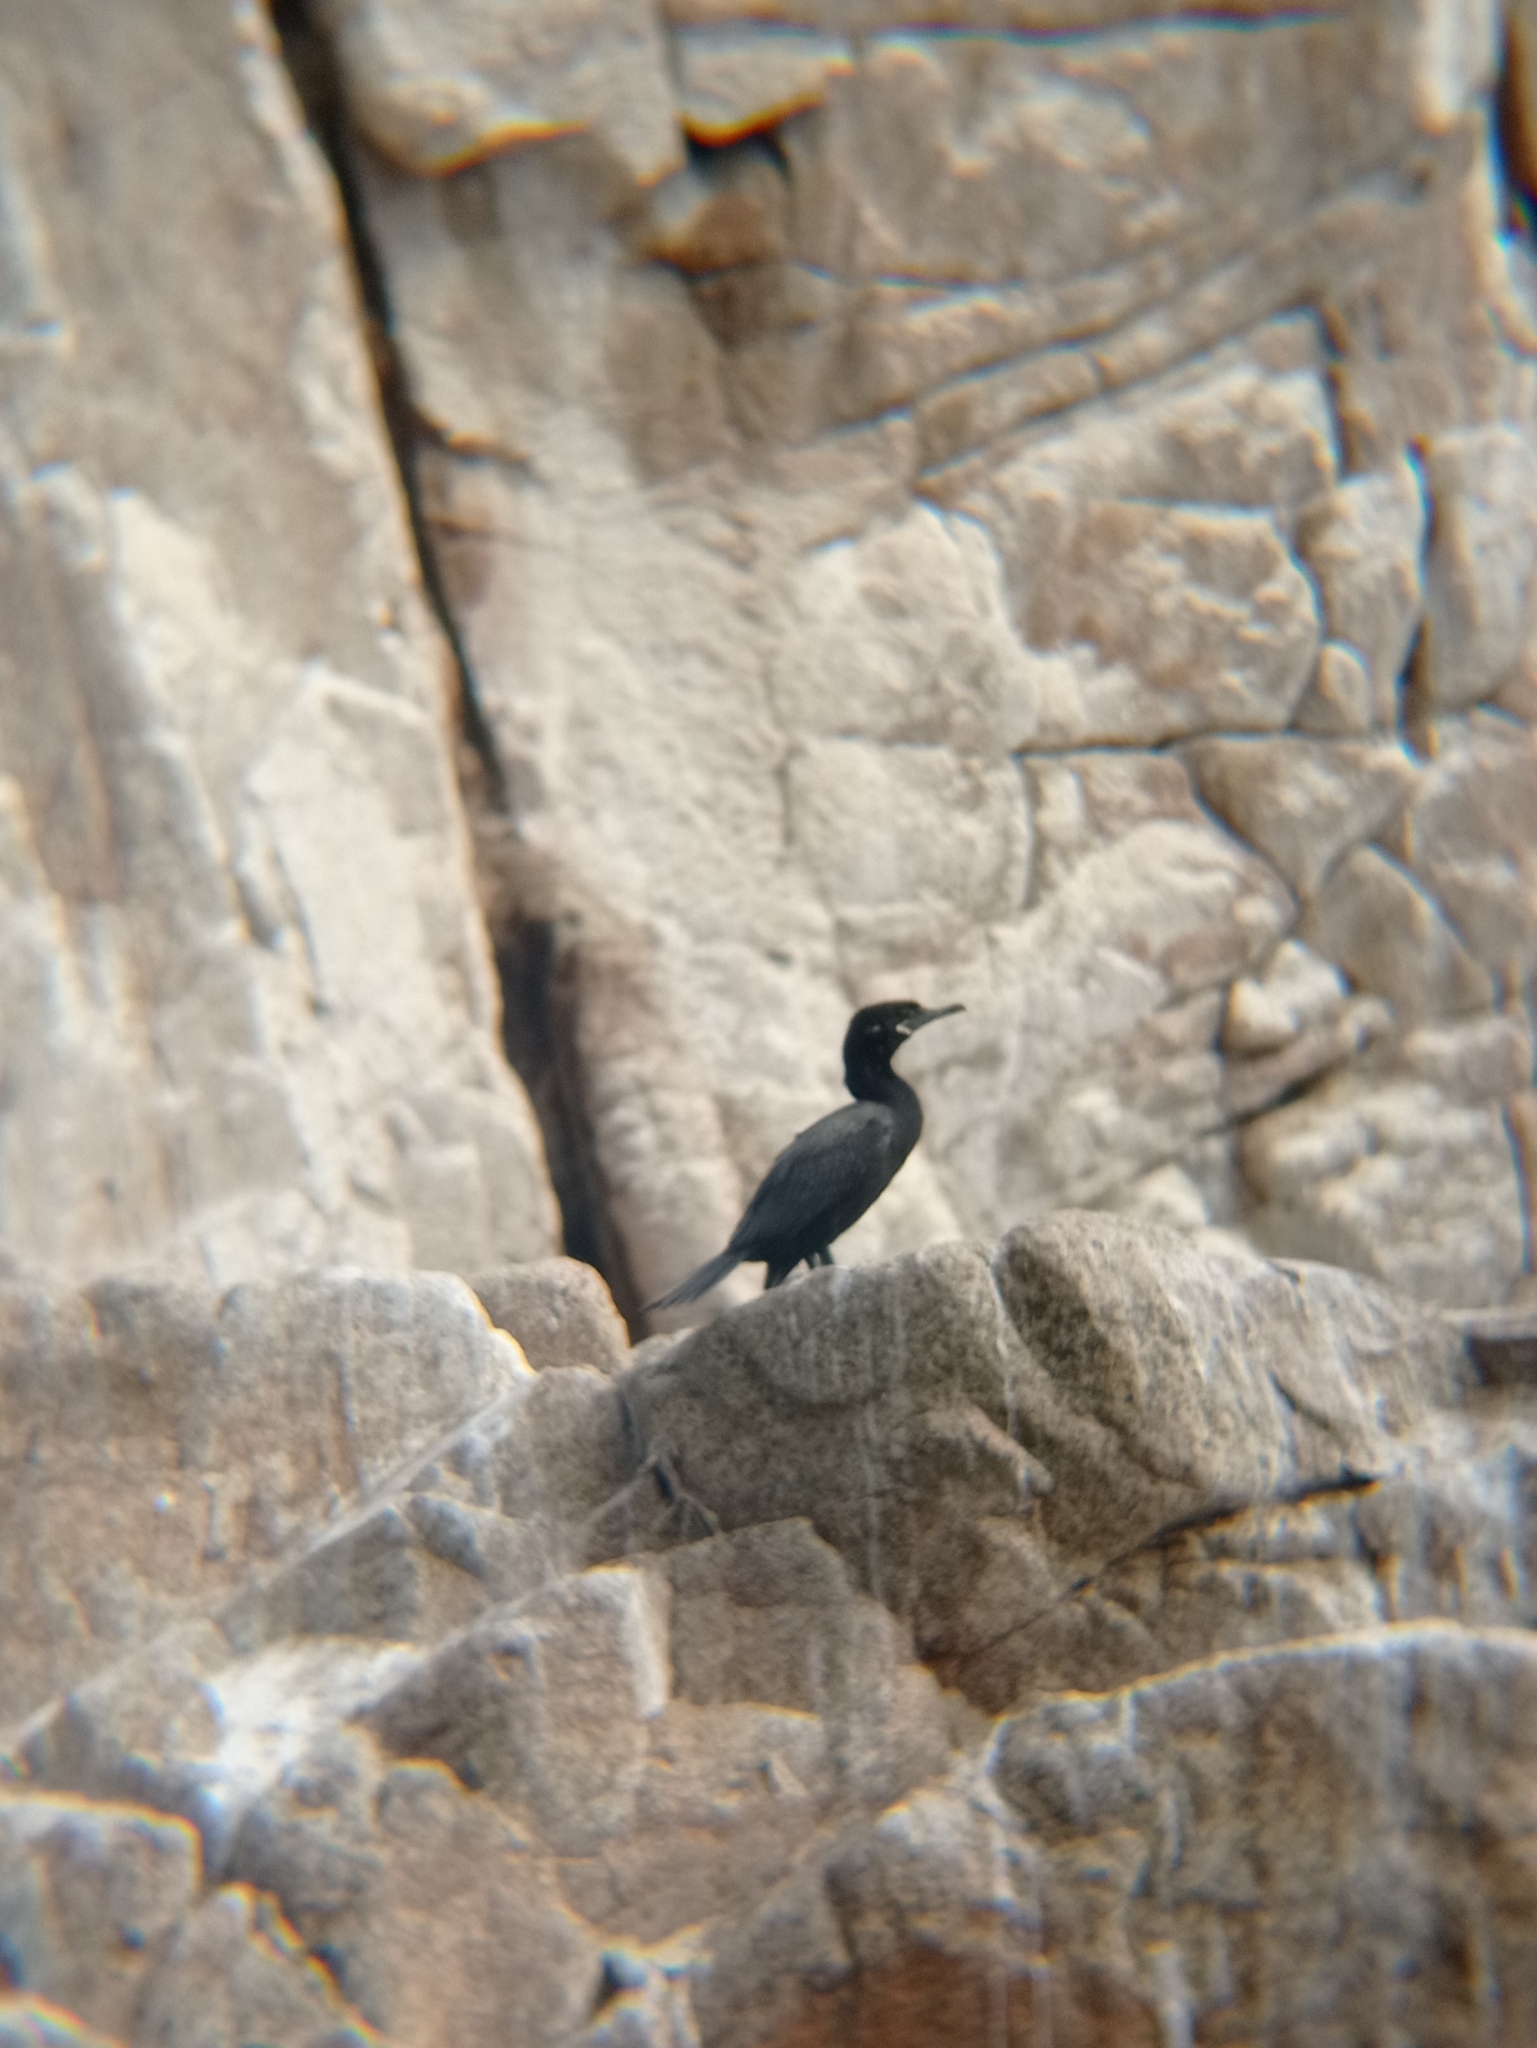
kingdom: Animalia
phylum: Chordata
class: Aves
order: Suliformes
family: Phalacrocoracidae
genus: Phalacrocorax
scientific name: Phalacrocorax brasilianus
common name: Neotropic cormorant
